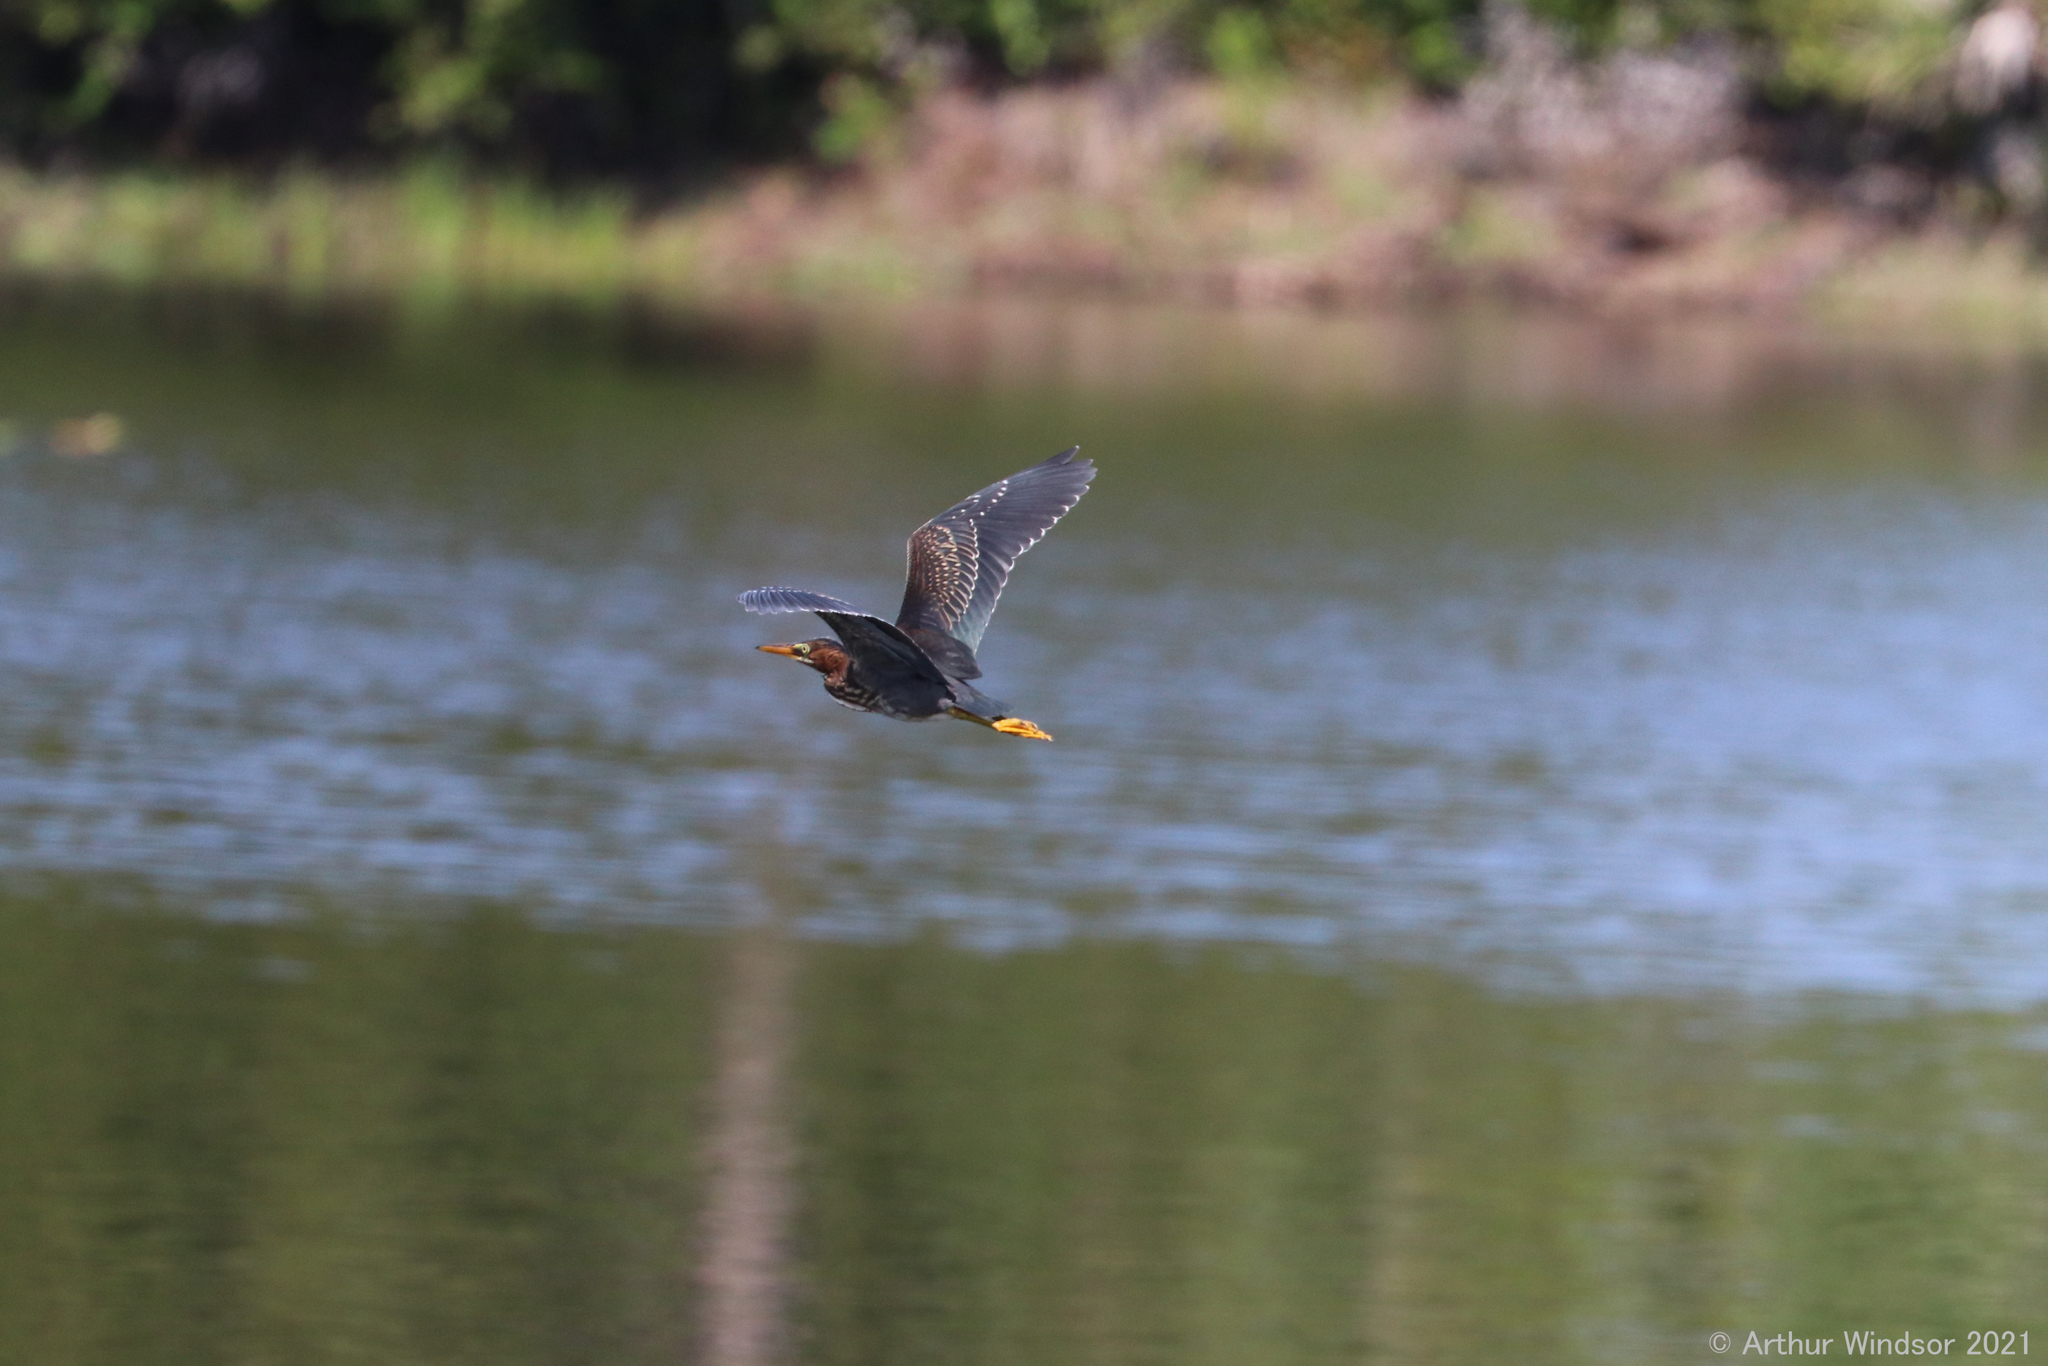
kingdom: Animalia
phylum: Chordata
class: Aves
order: Pelecaniformes
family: Ardeidae
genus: Butorides
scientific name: Butorides virescens
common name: Green heron
